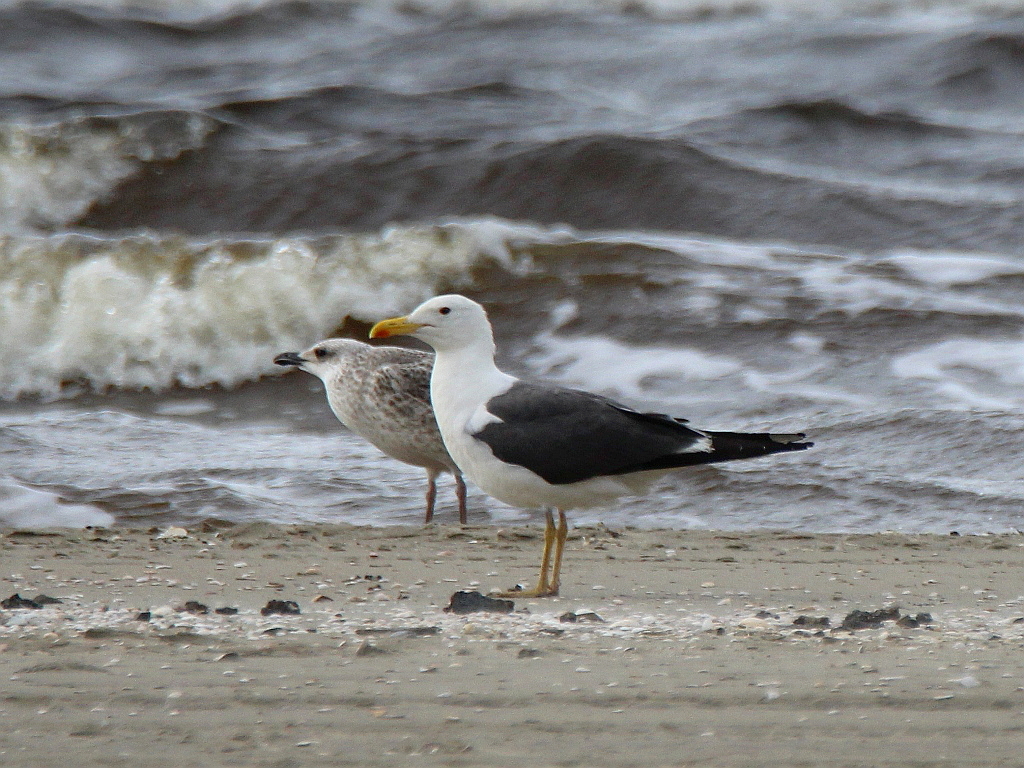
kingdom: Animalia
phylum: Chordata
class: Aves
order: Charadriiformes
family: Laridae
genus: Larus
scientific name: Larus fuscus
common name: Lesser black-backed gull
